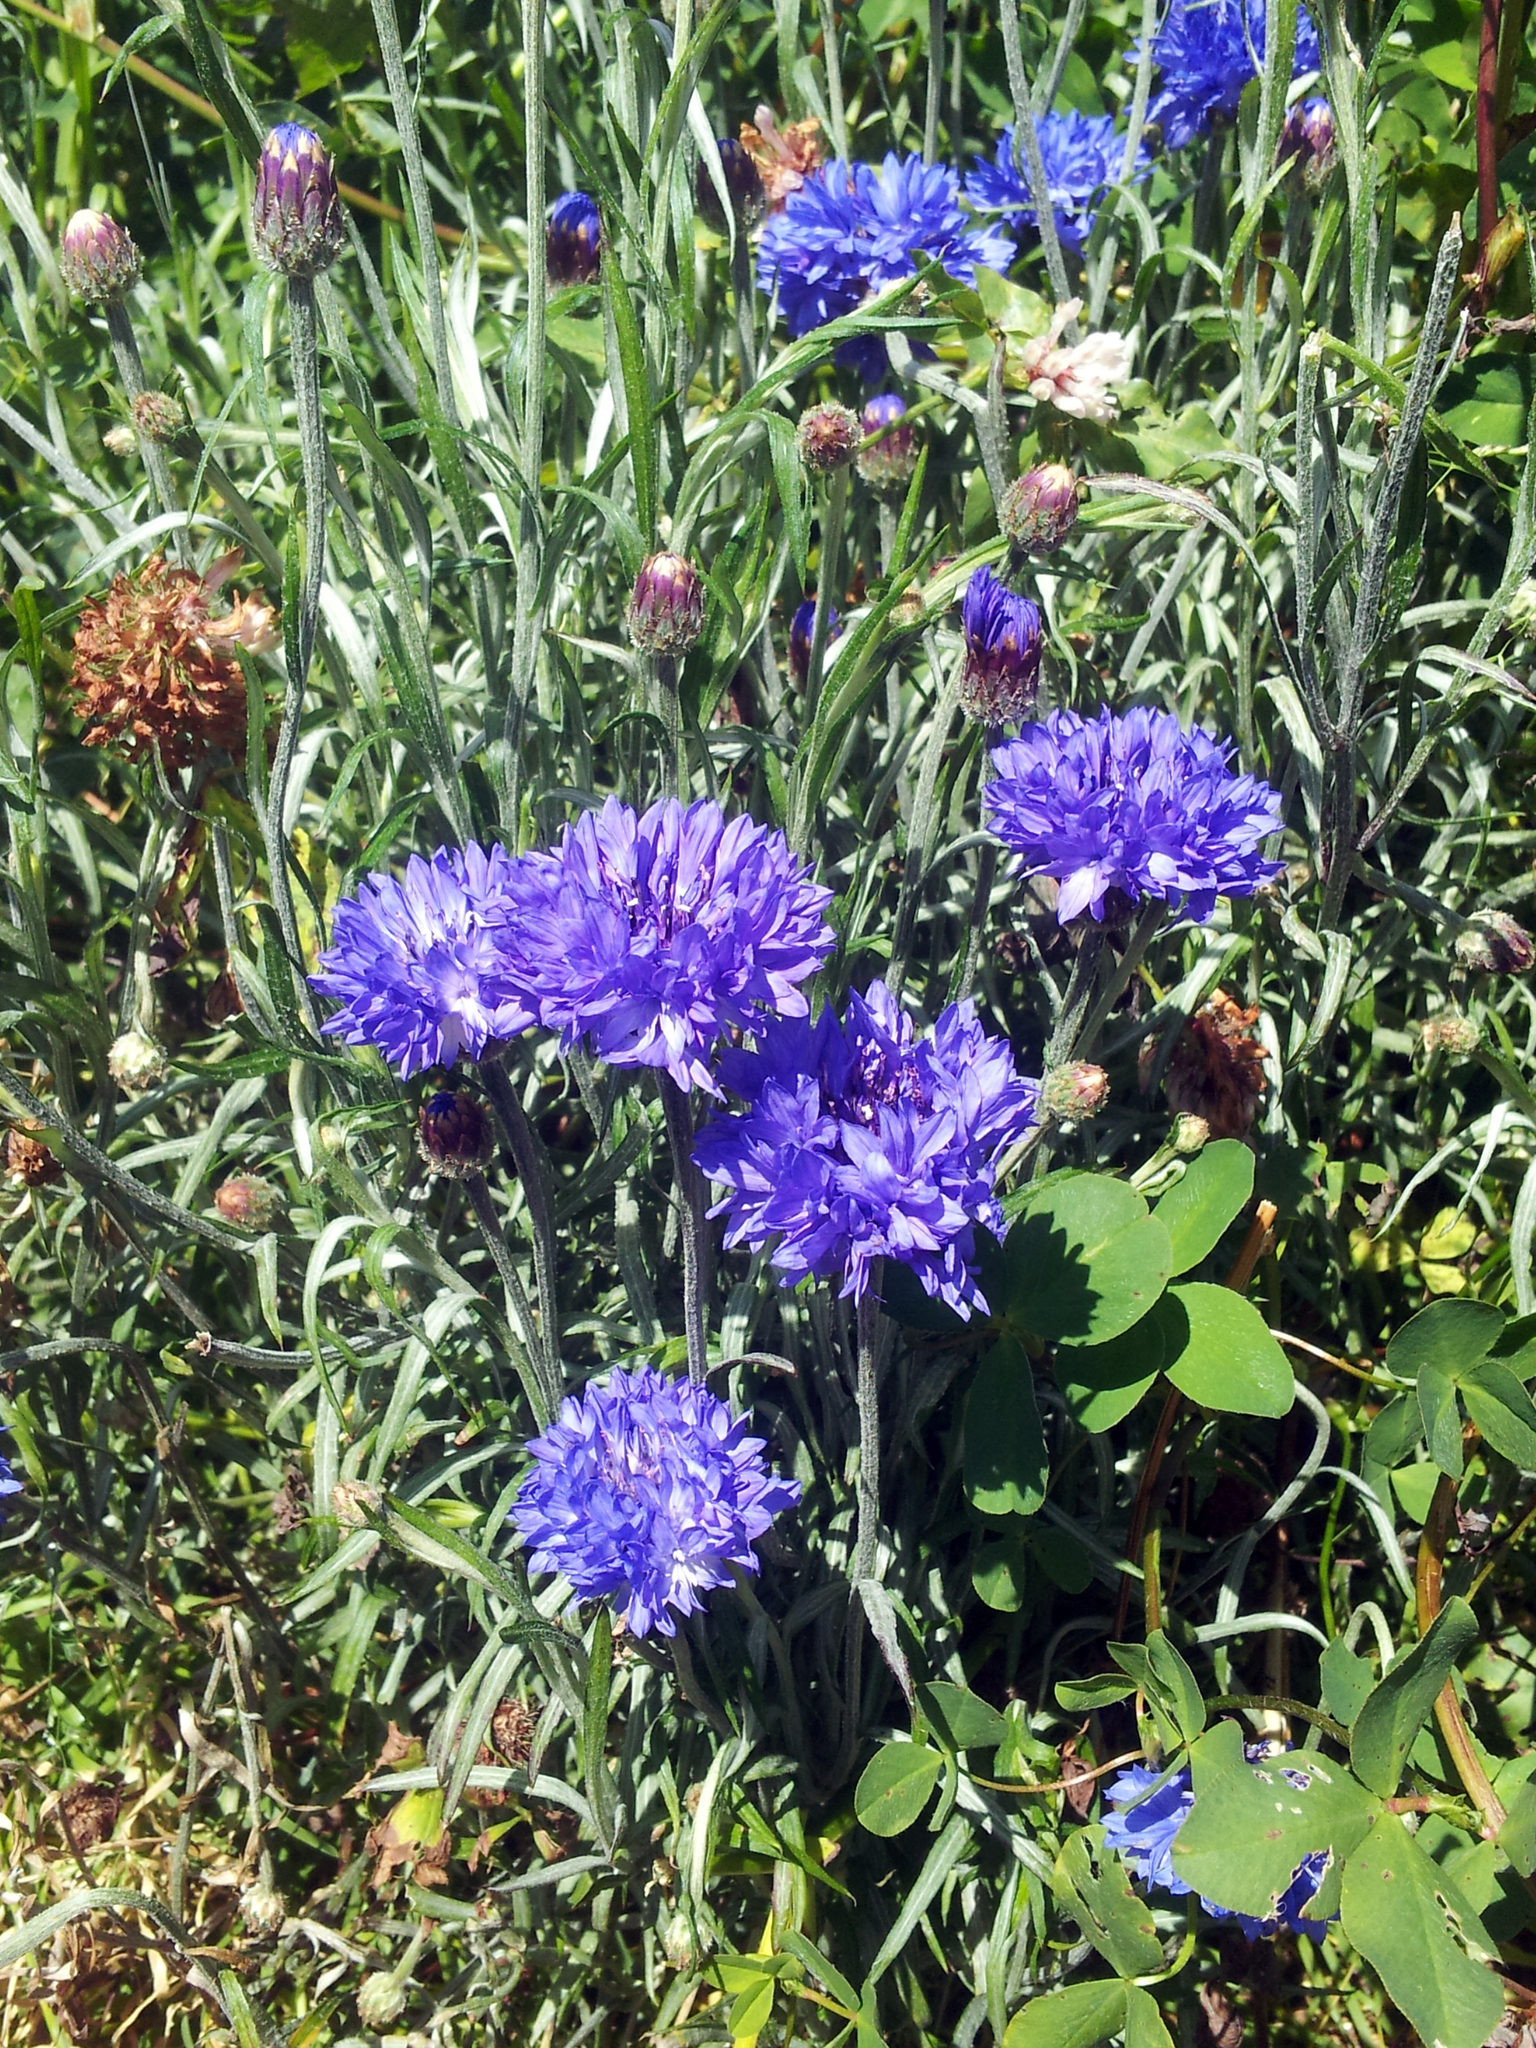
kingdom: Plantae
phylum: Tracheophyta
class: Magnoliopsida
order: Asterales
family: Asteraceae
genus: Centaurea
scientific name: Centaurea cyanus
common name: Cornflower
